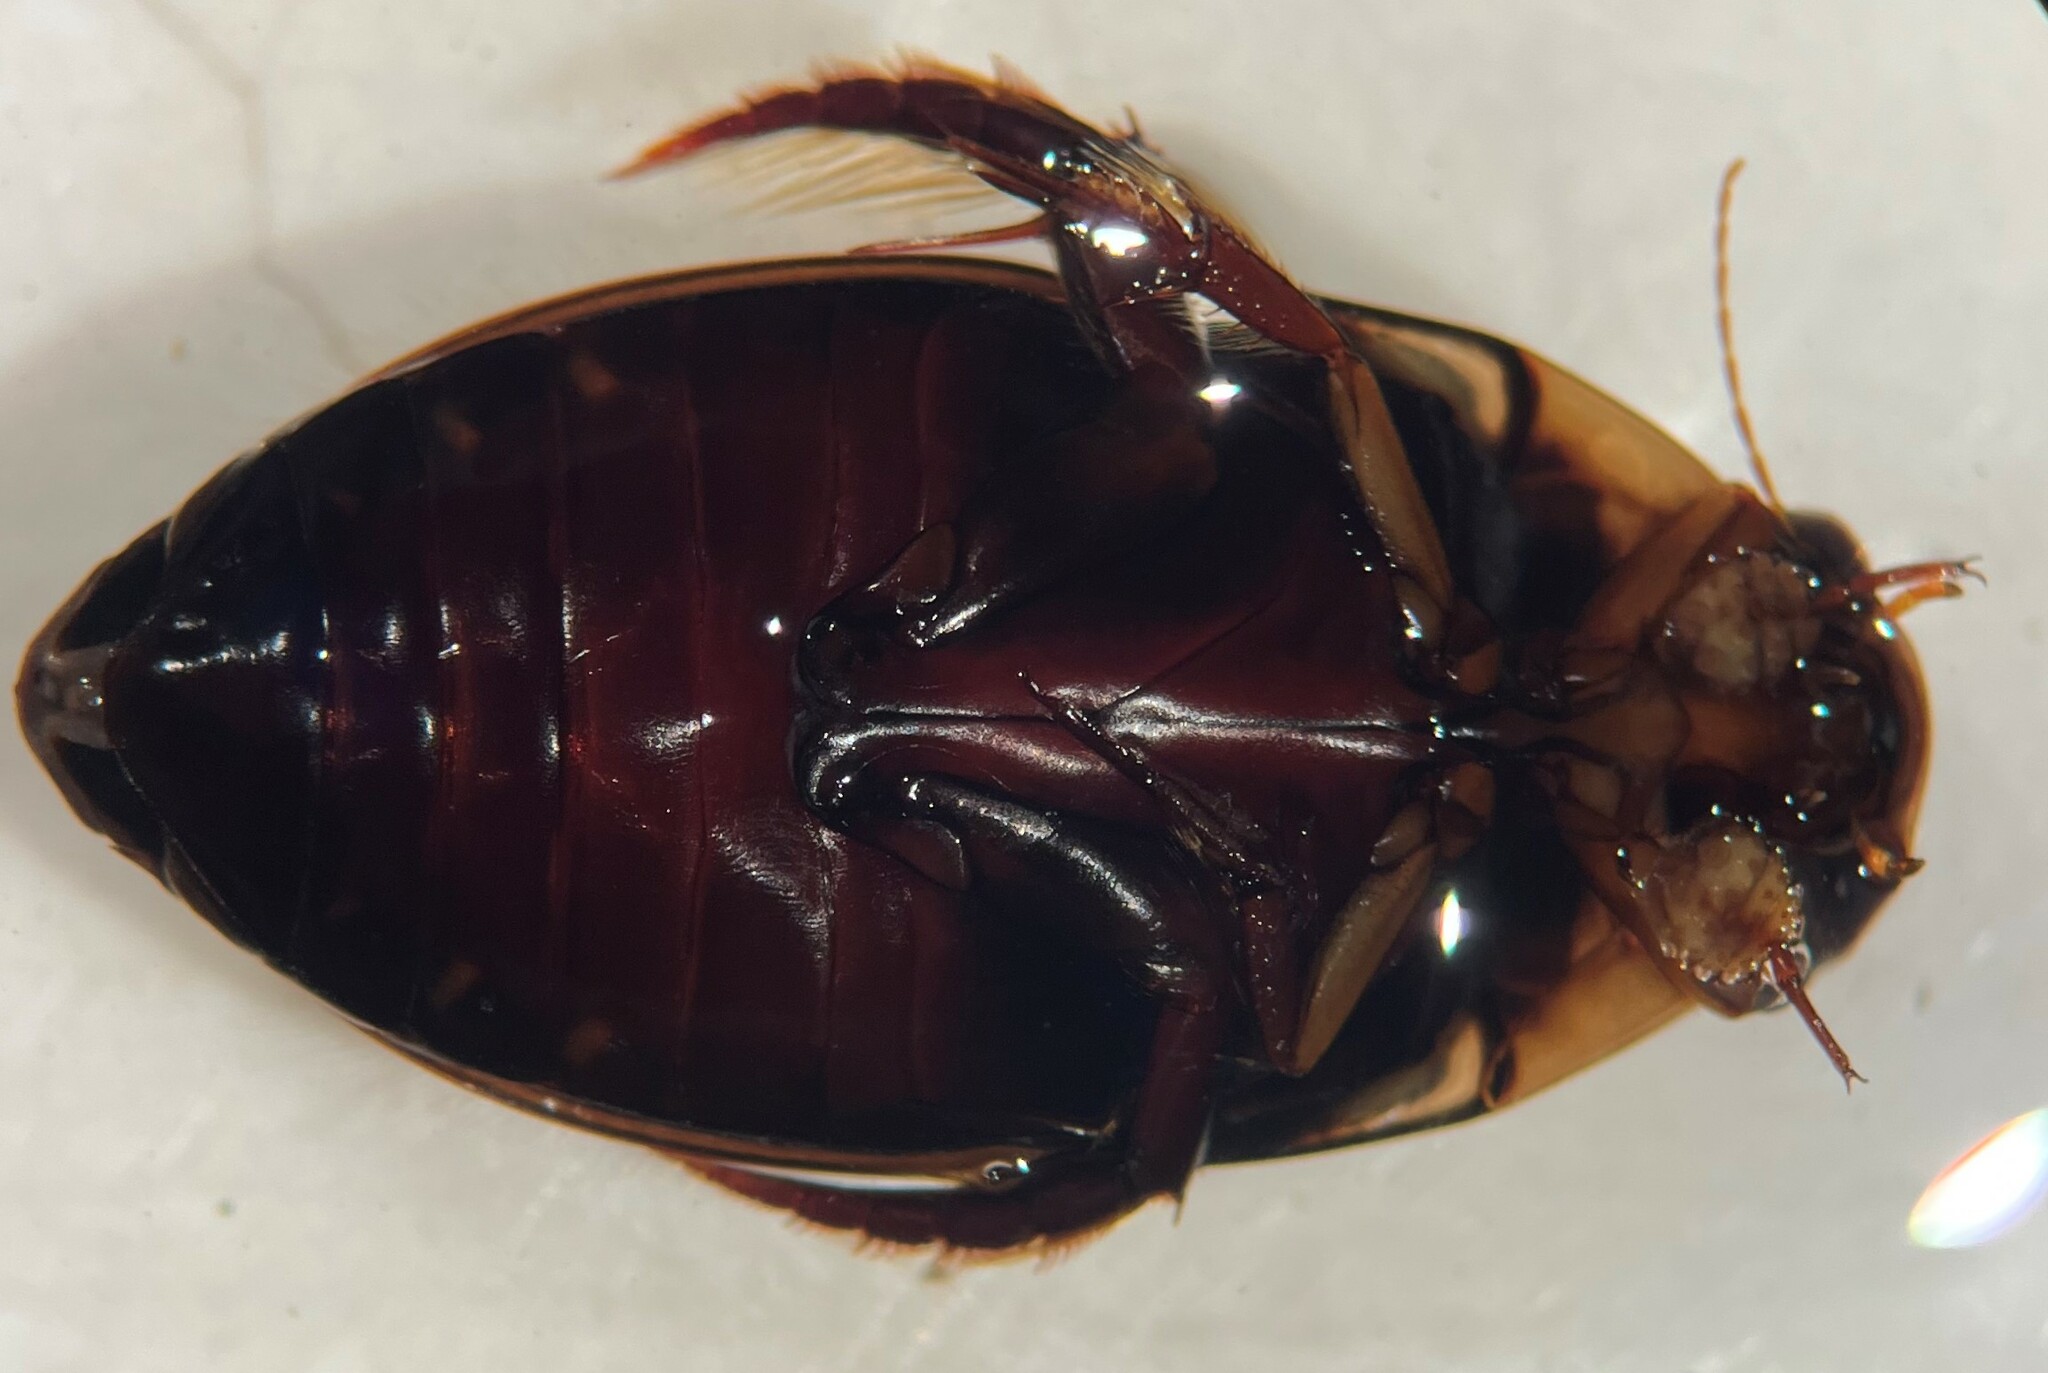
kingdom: Animalia
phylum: Arthropoda
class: Insecta
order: Coleoptera
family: Dytiscidae
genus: Hydaticus
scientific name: Hydaticus rimosus
